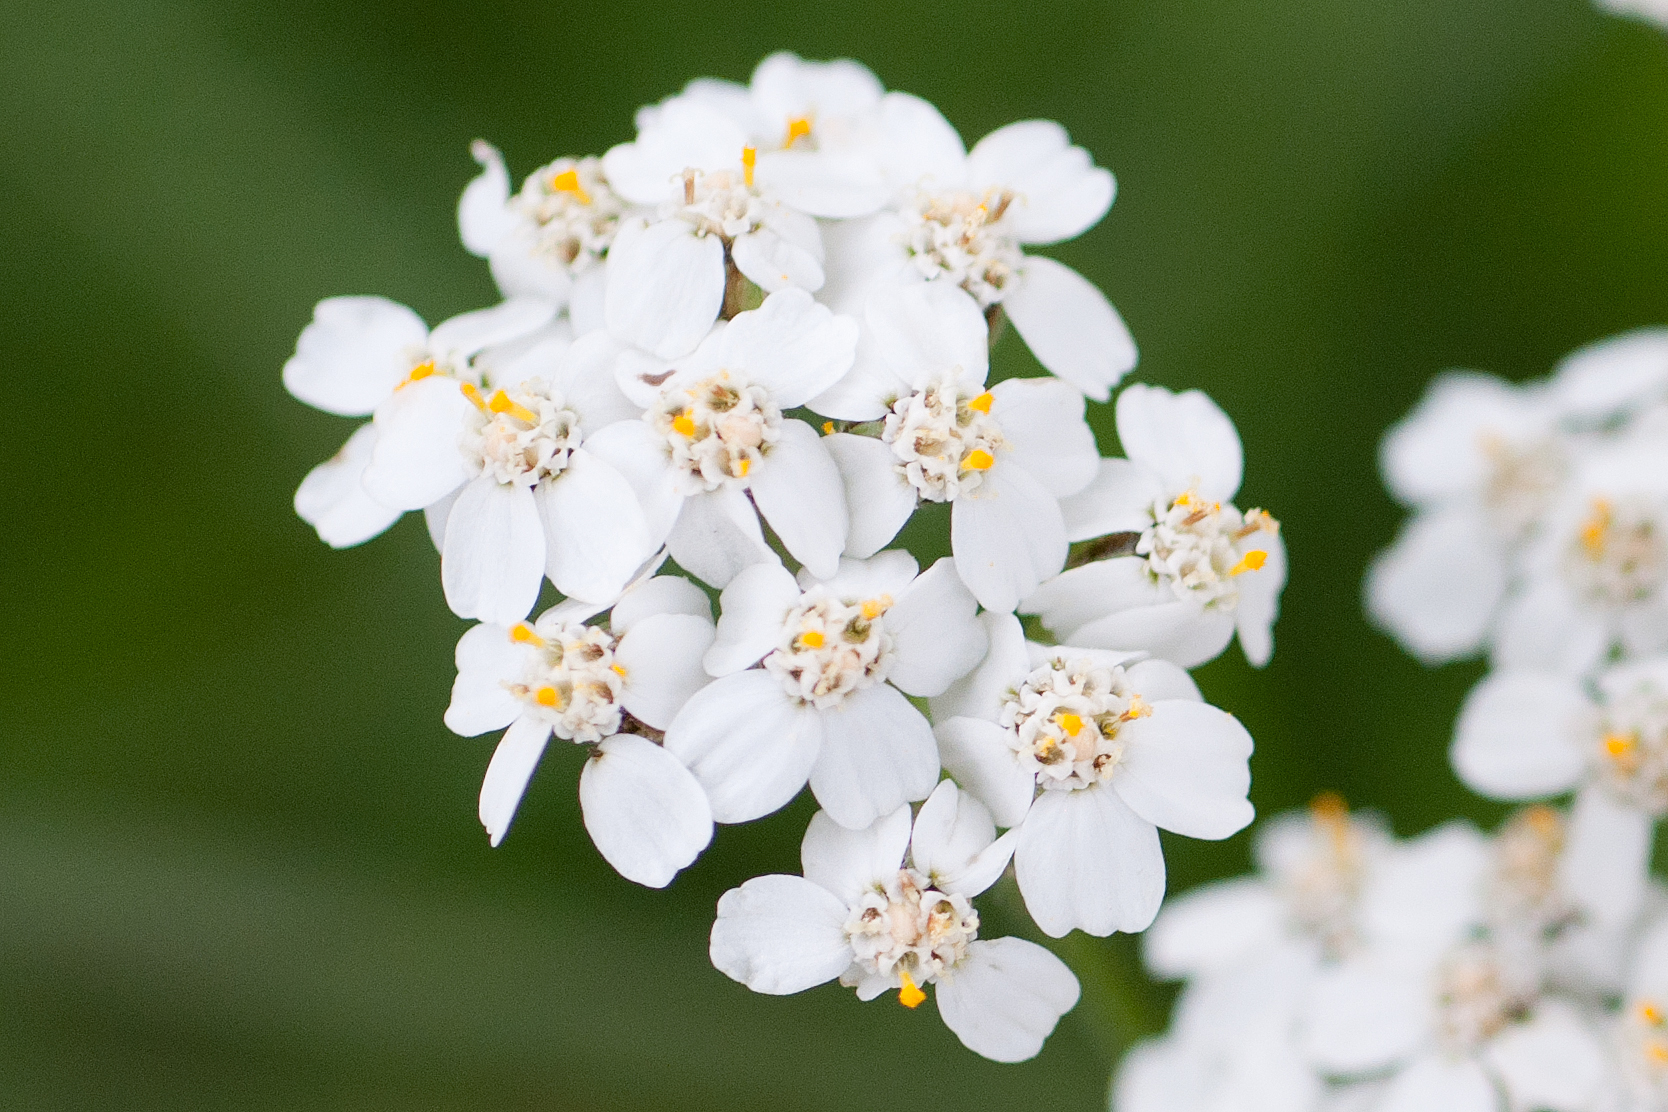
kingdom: Plantae
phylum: Tracheophyta
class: Magnoliopsida
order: Asterales
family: Asteraceae
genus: Achillea
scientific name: Achillea millefolium
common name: Yarrow
